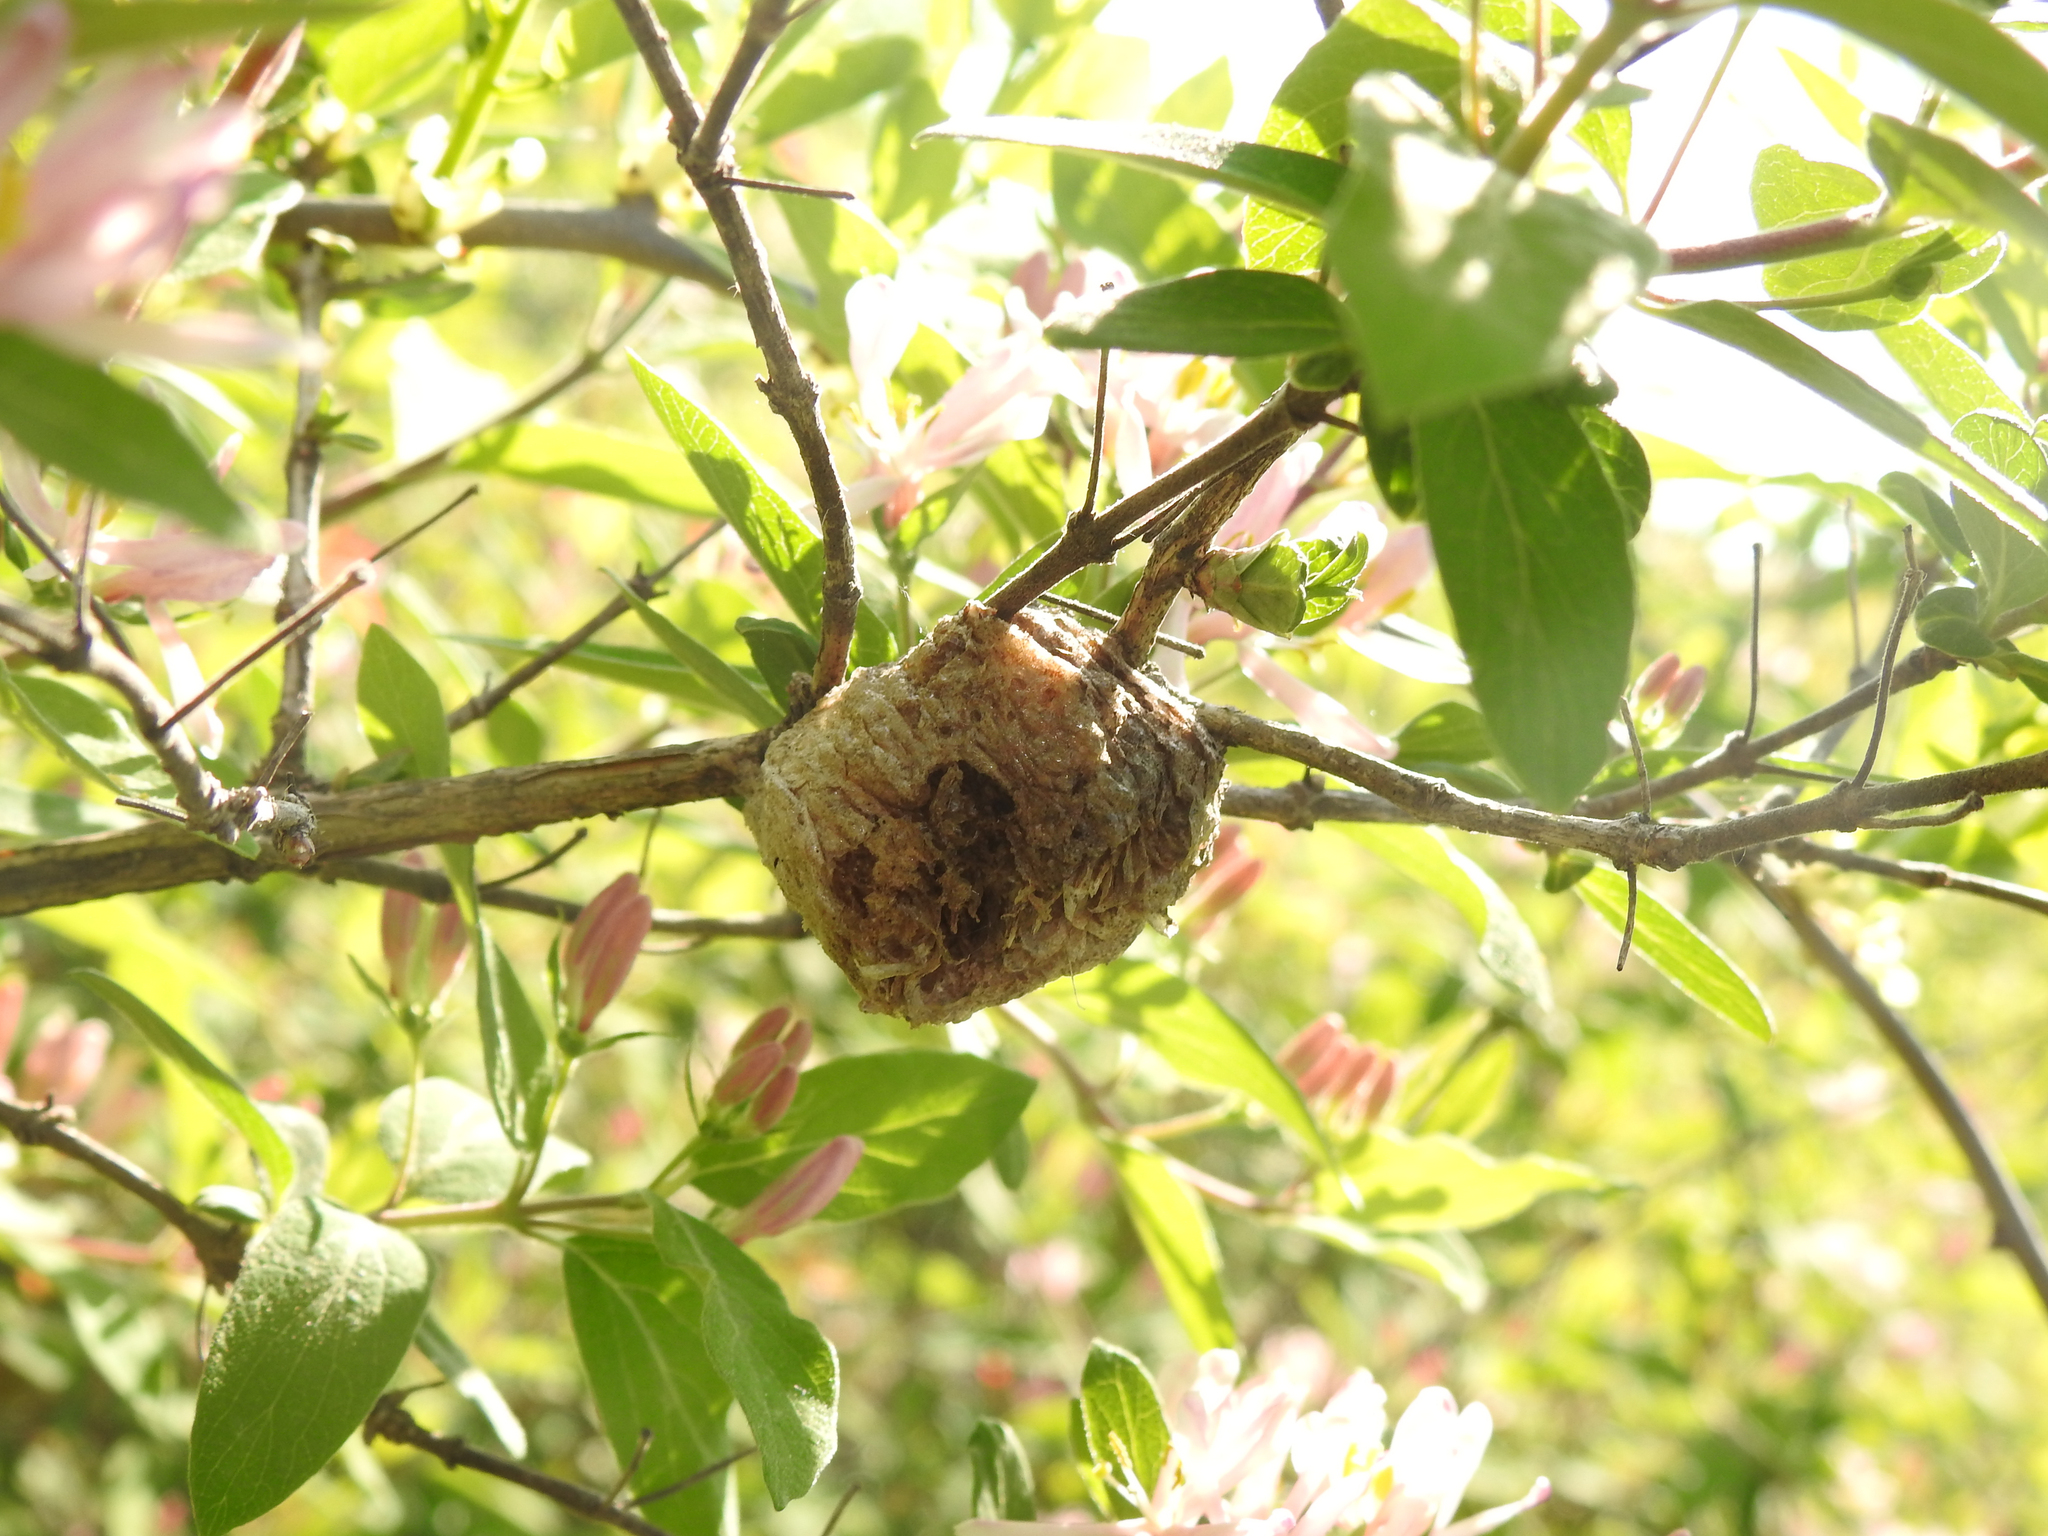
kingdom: Animalia
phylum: Arthropoda
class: Insecta
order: Mantodea
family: Mantidae
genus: Tenodera
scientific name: Tenodera sinensis
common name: Chinese mantis
